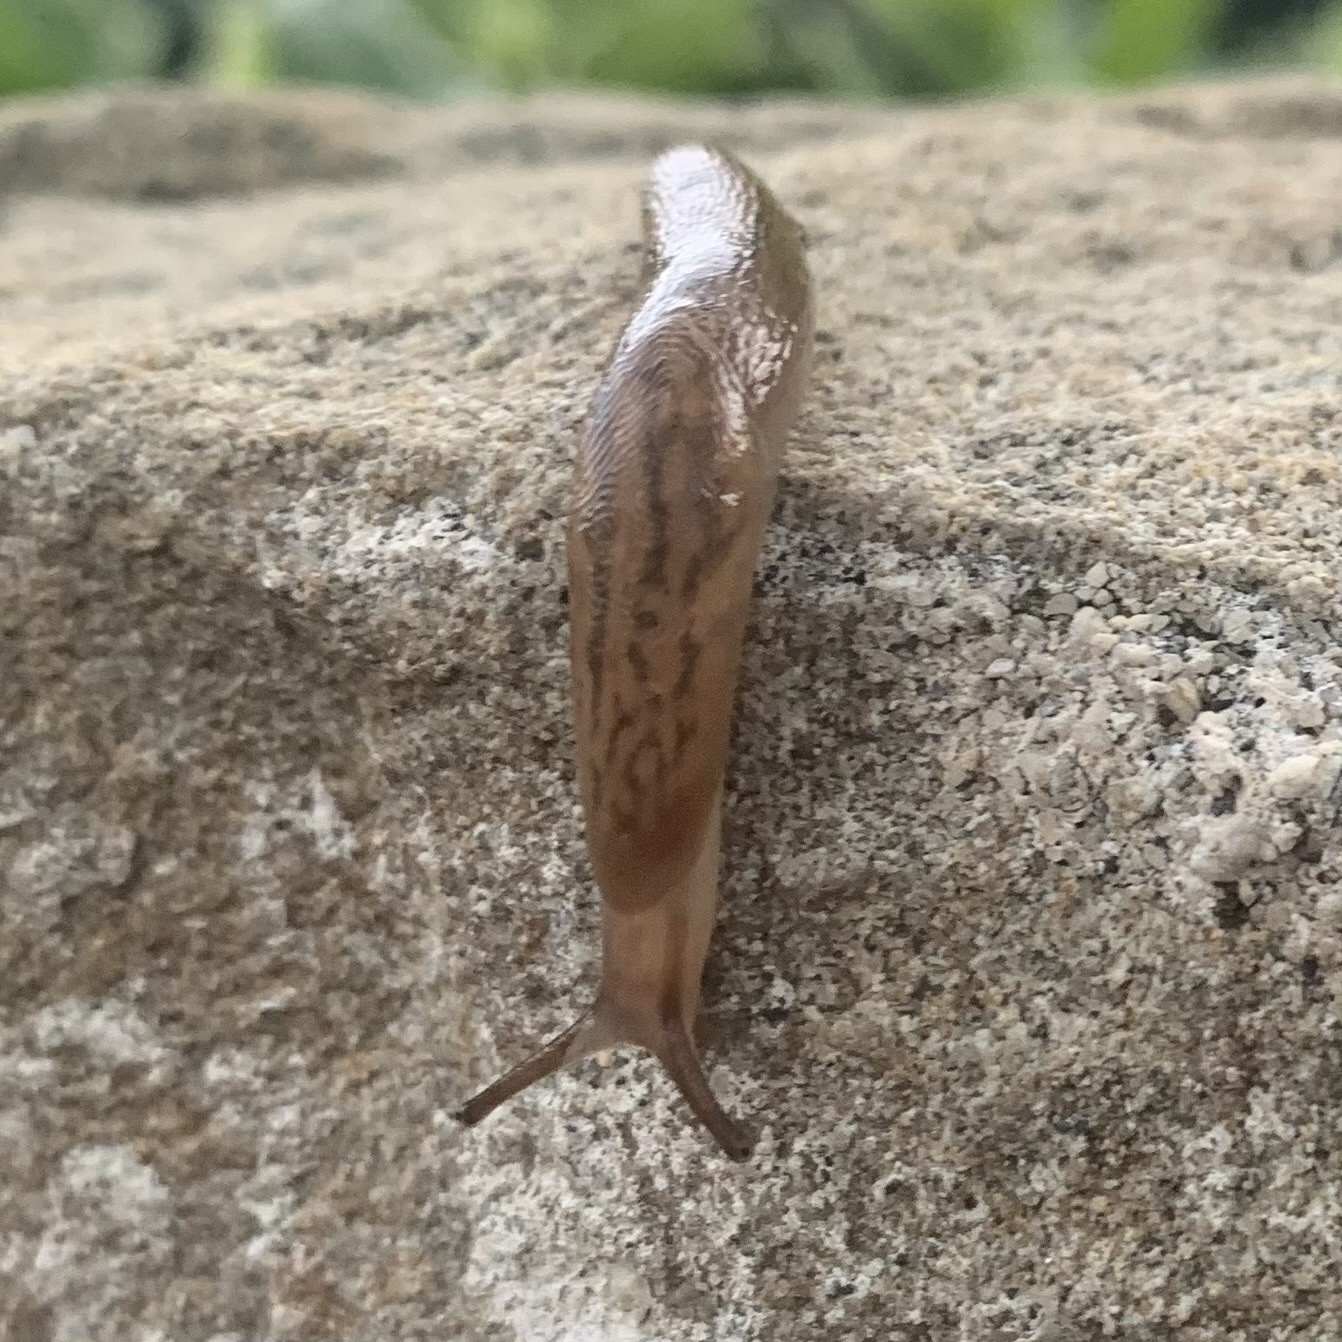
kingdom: Animalia
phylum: Mollusca
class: Gastropoda
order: Stylommatophora
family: Limacidae
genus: Ambigolimax
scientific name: Ambigolimax
